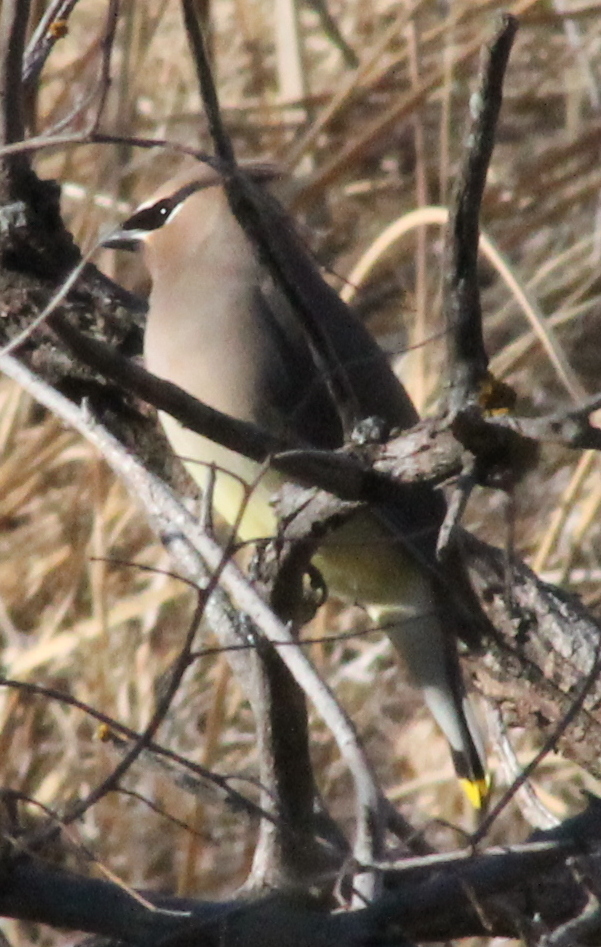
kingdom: Animalia
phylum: Chordata
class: Aves
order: Passeriformes
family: Bombycillidae
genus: Bombycilla
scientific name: Bombycilla cedrorum
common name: Cedar waxwing
